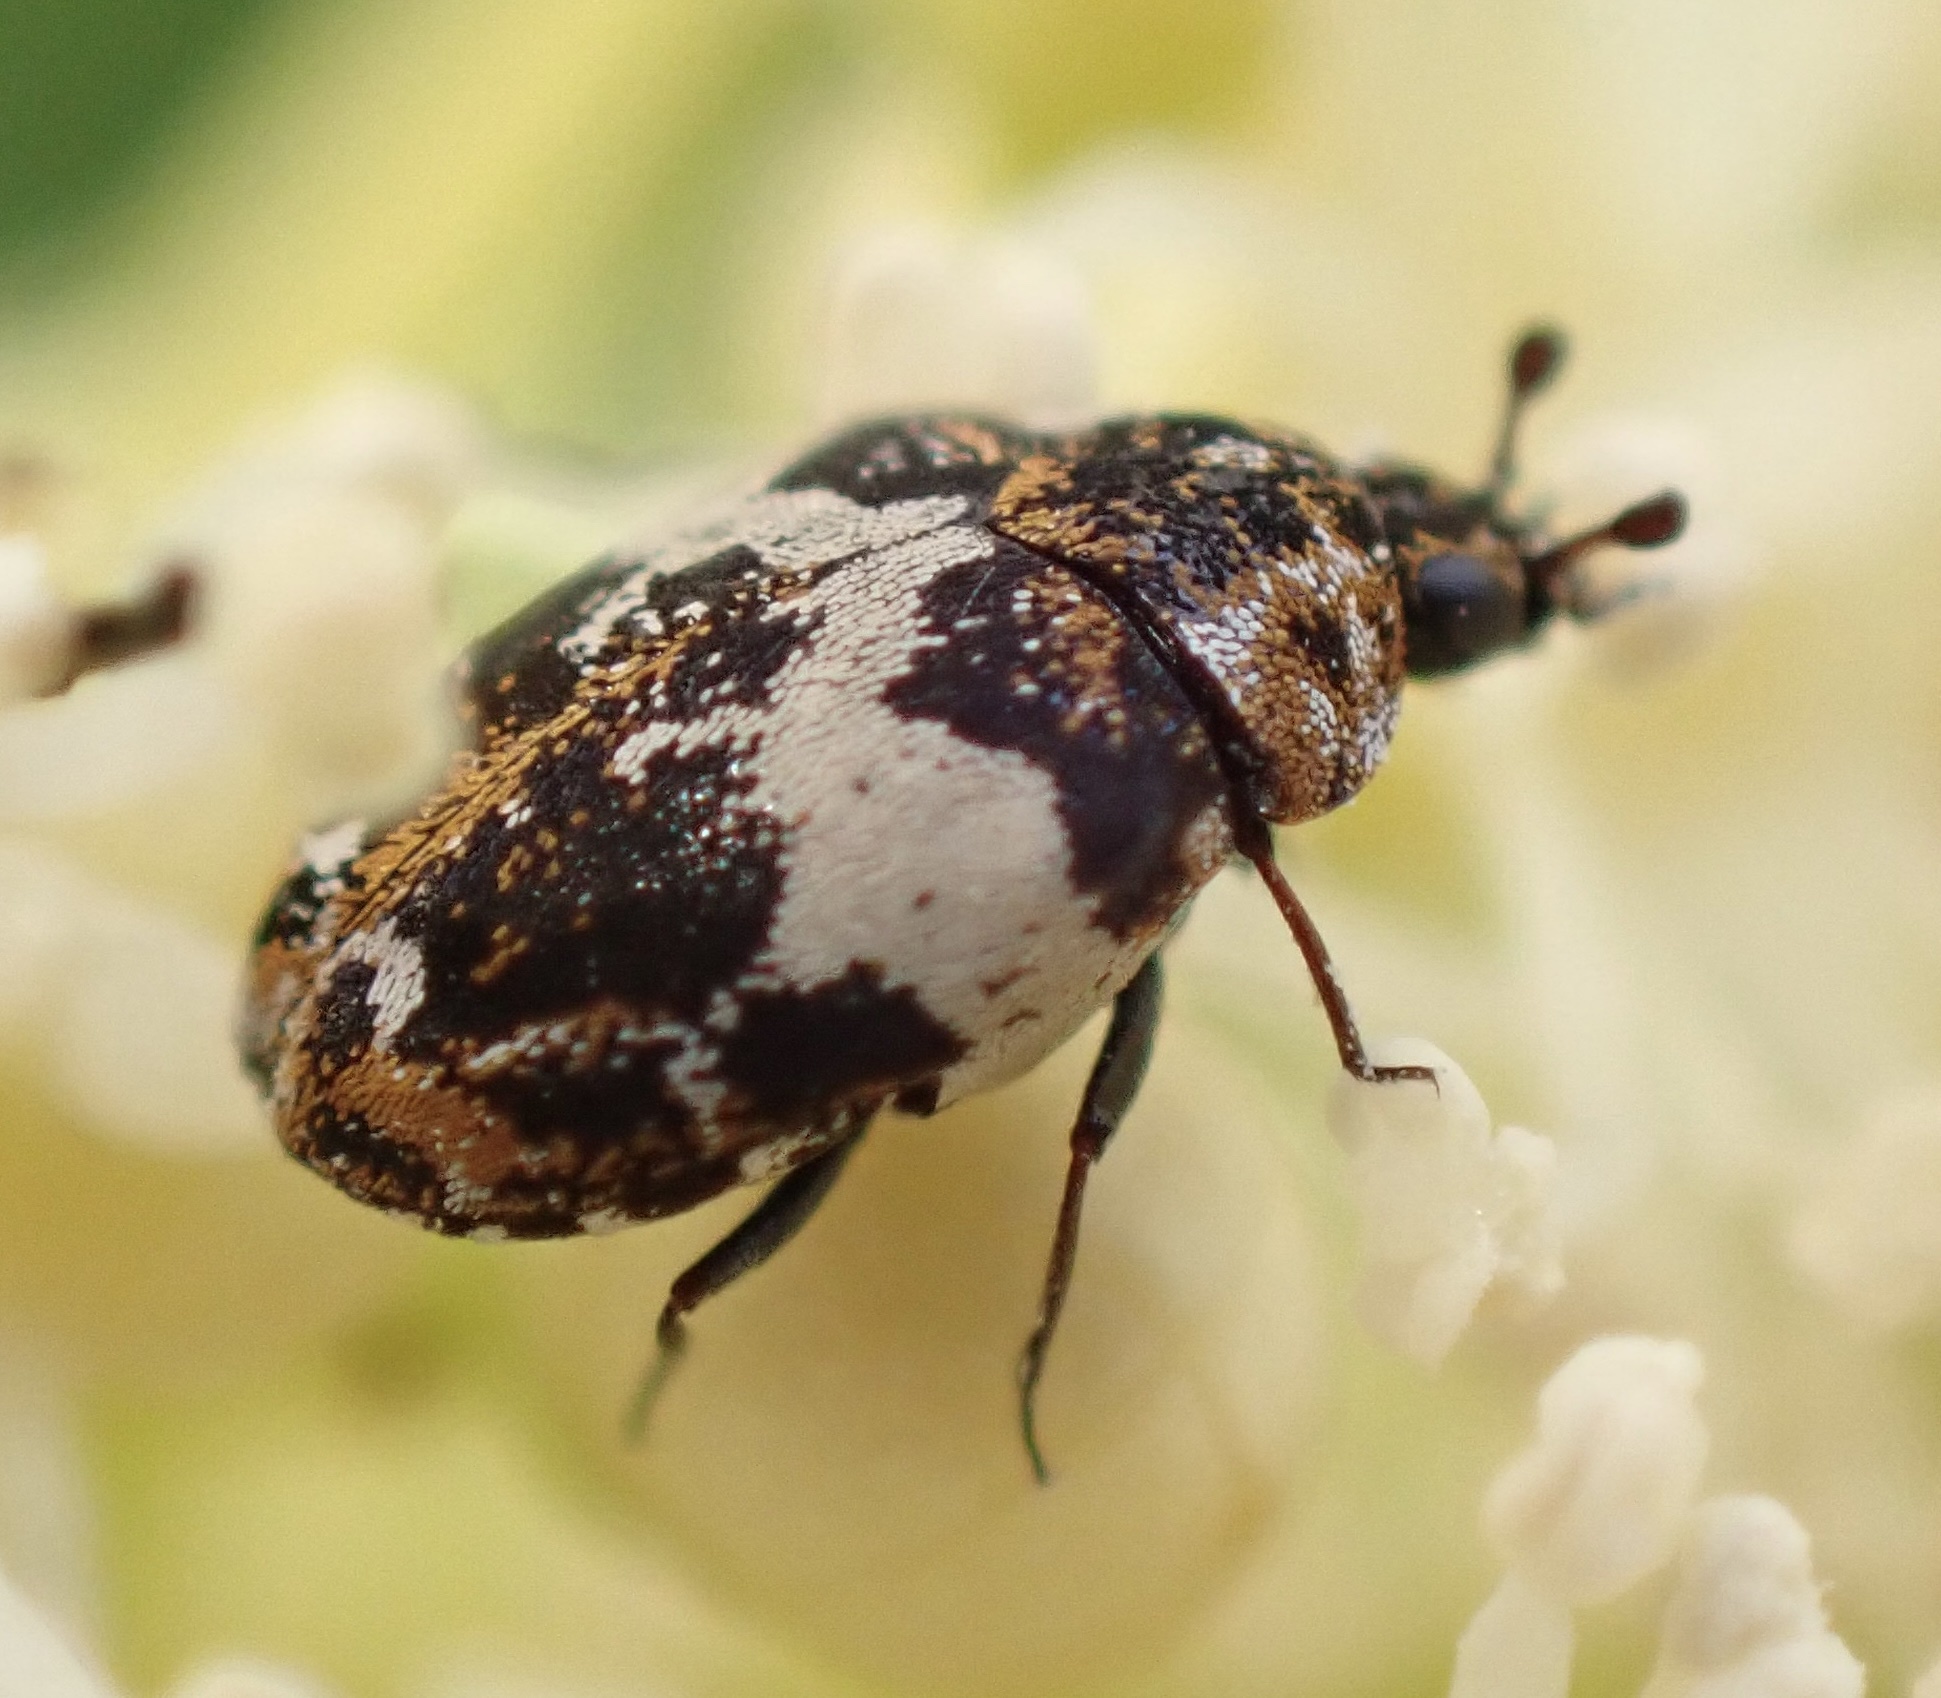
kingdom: Animalia
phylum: Arthropoda
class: Insecta
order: Coleoptera
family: Dermestidae
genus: Anthrenus
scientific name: Anthrenus pimpinellae
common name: Dermestid beetle
